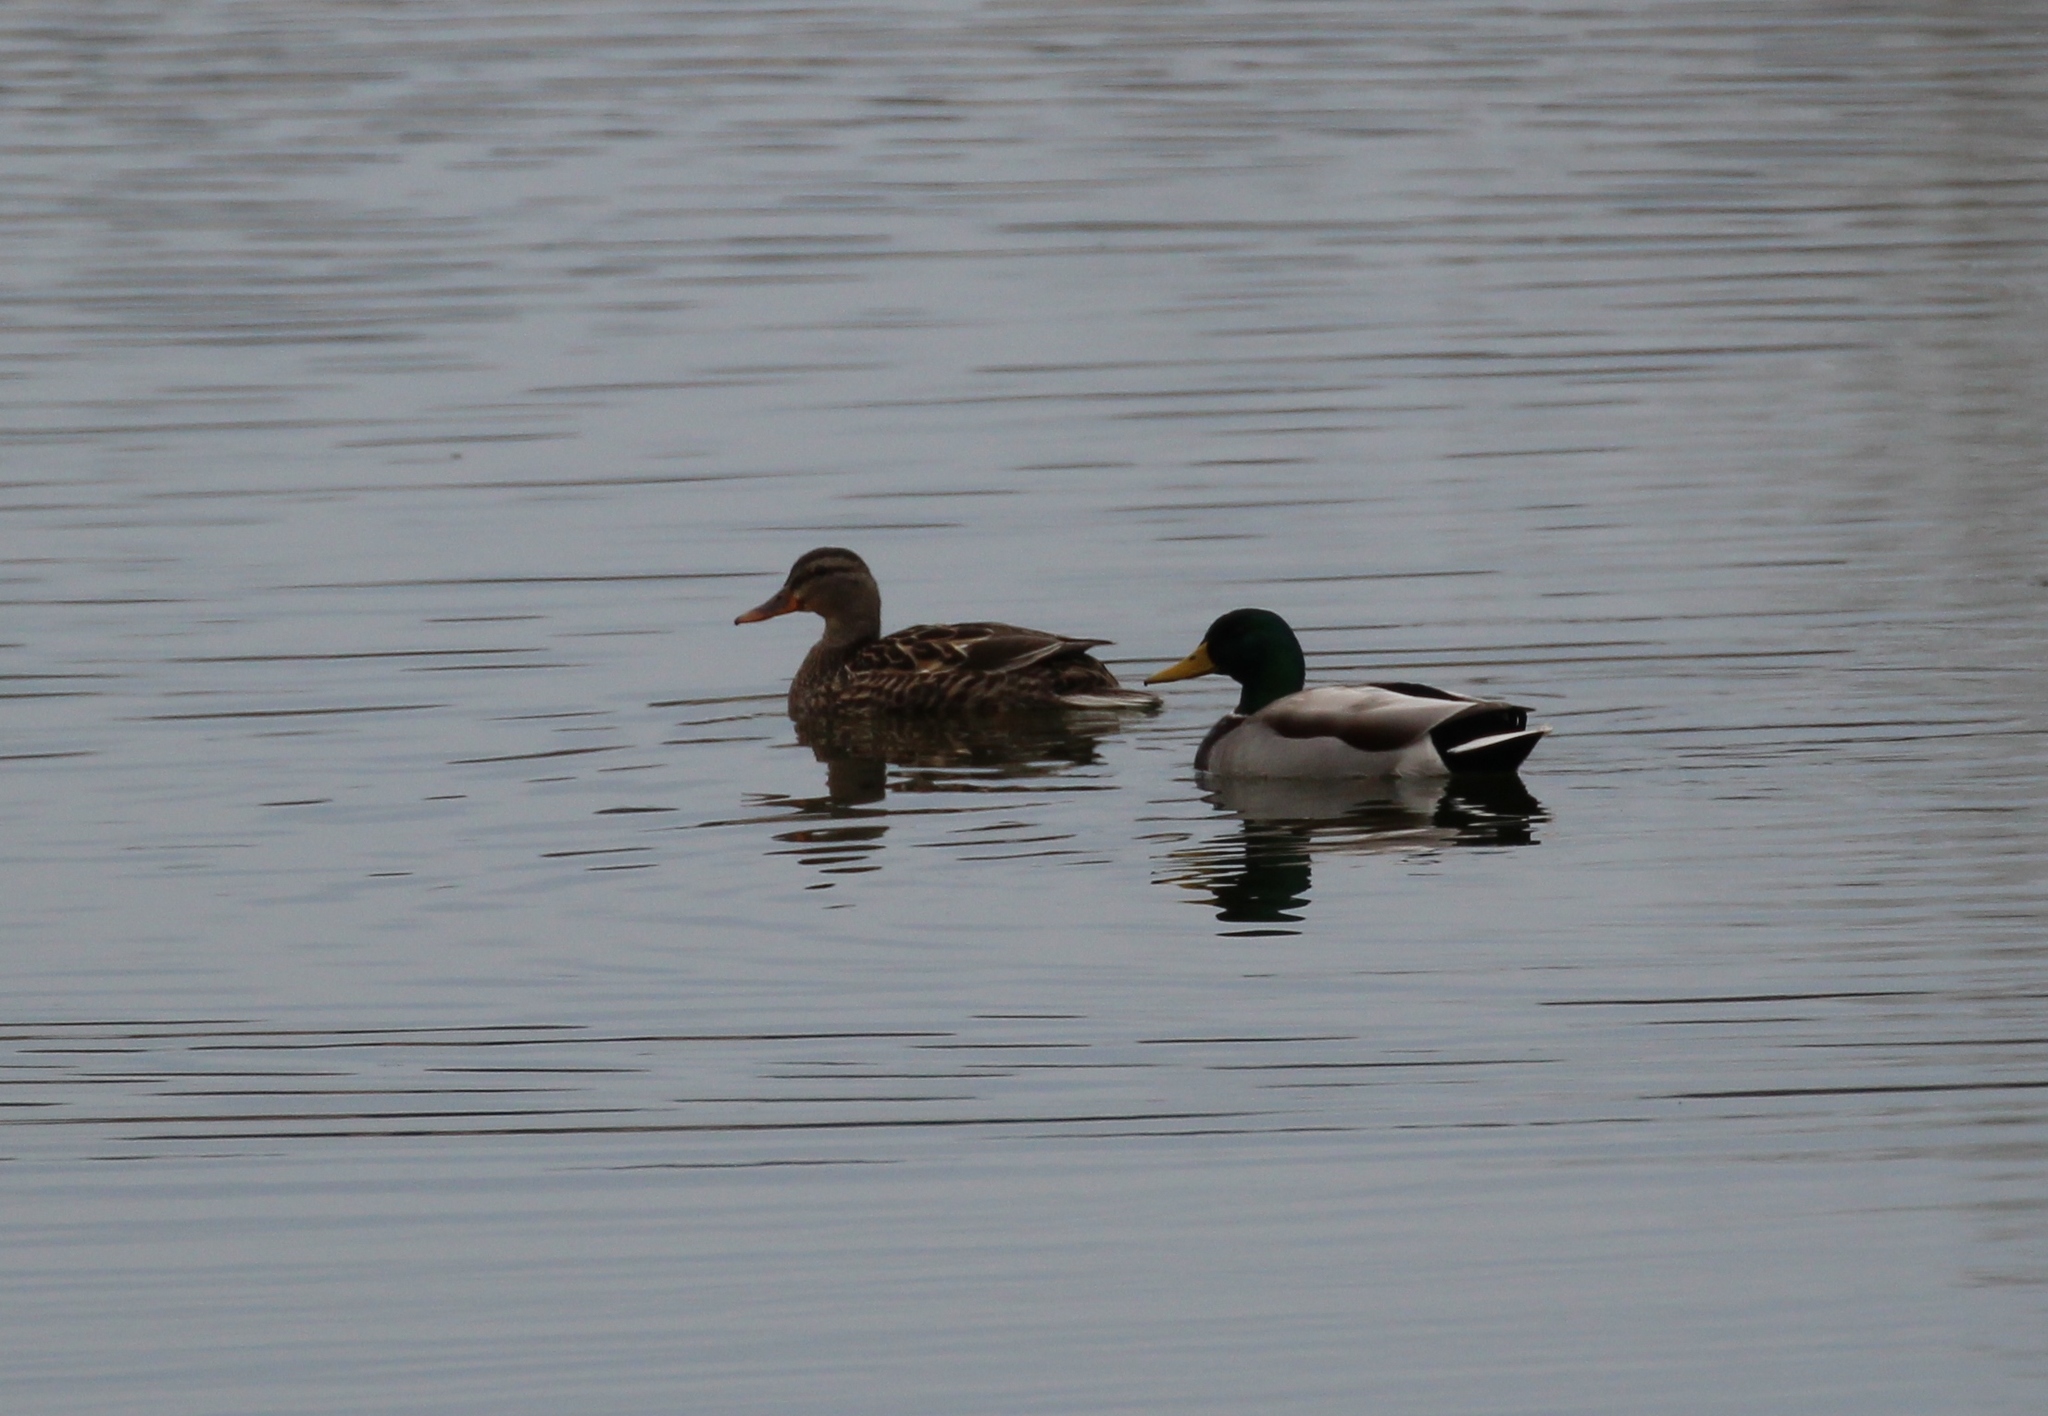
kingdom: Animalia
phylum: Chordata
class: Aves
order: Anseriformes
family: Anatidae
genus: Anas
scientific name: Anas platyrhynchos
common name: Mallard
